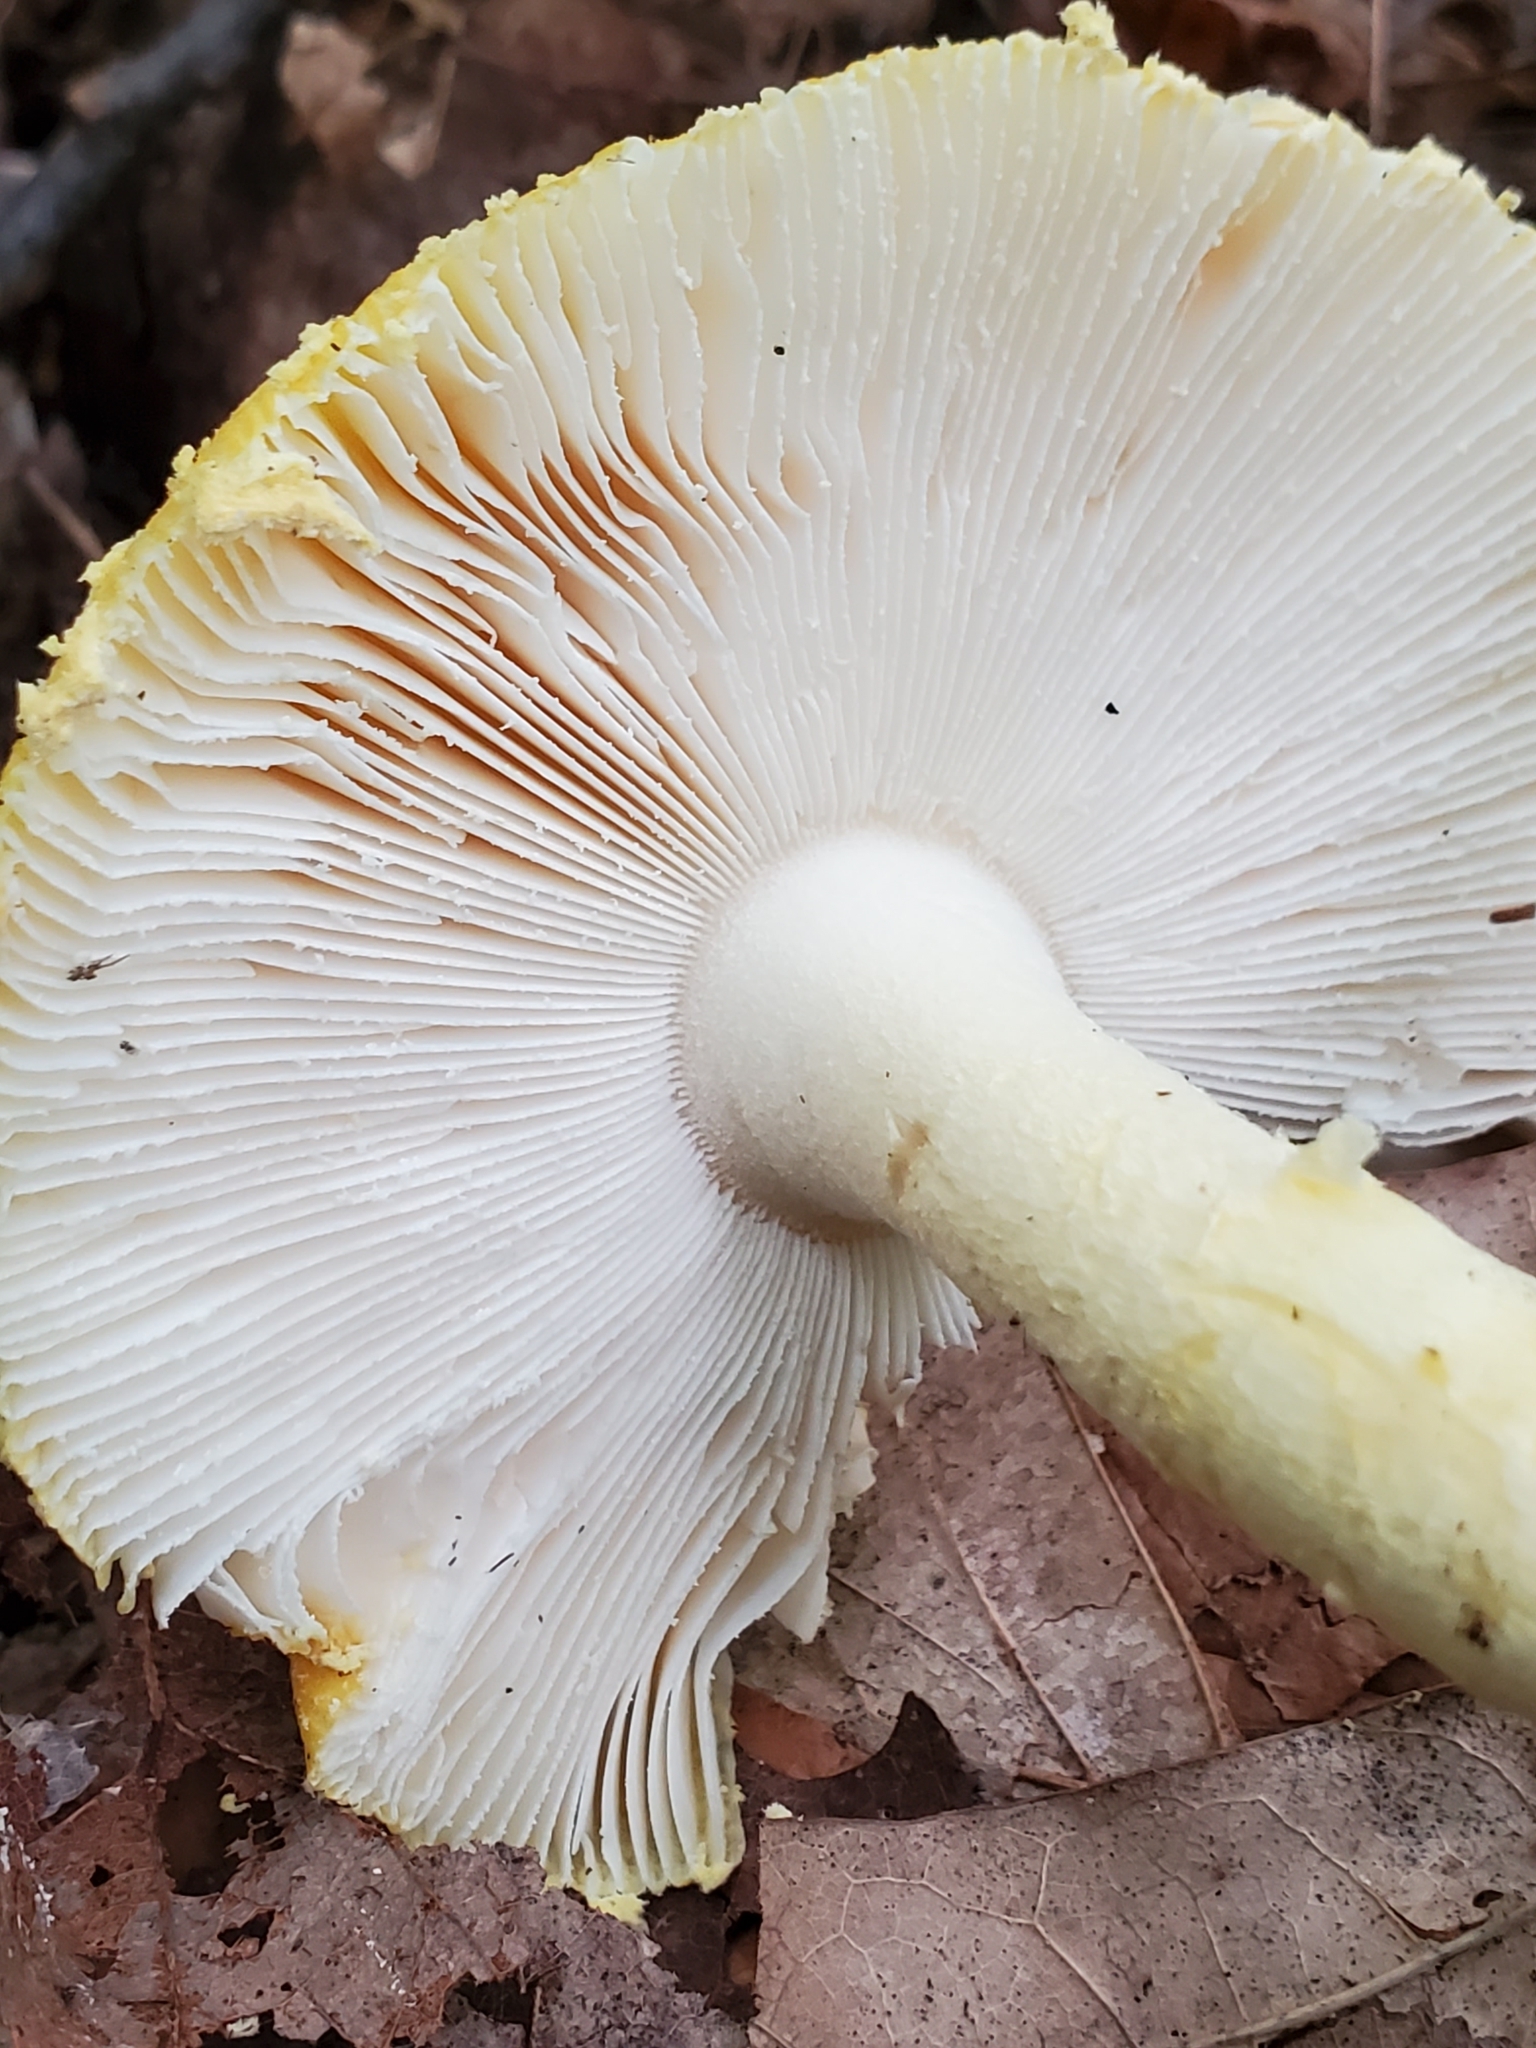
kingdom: Fungi
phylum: Basidiomycota
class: Agaricomycetes
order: Agaricales
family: Amanitaceae
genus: Amanita
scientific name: Amanita muscaria
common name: Fly agaric
